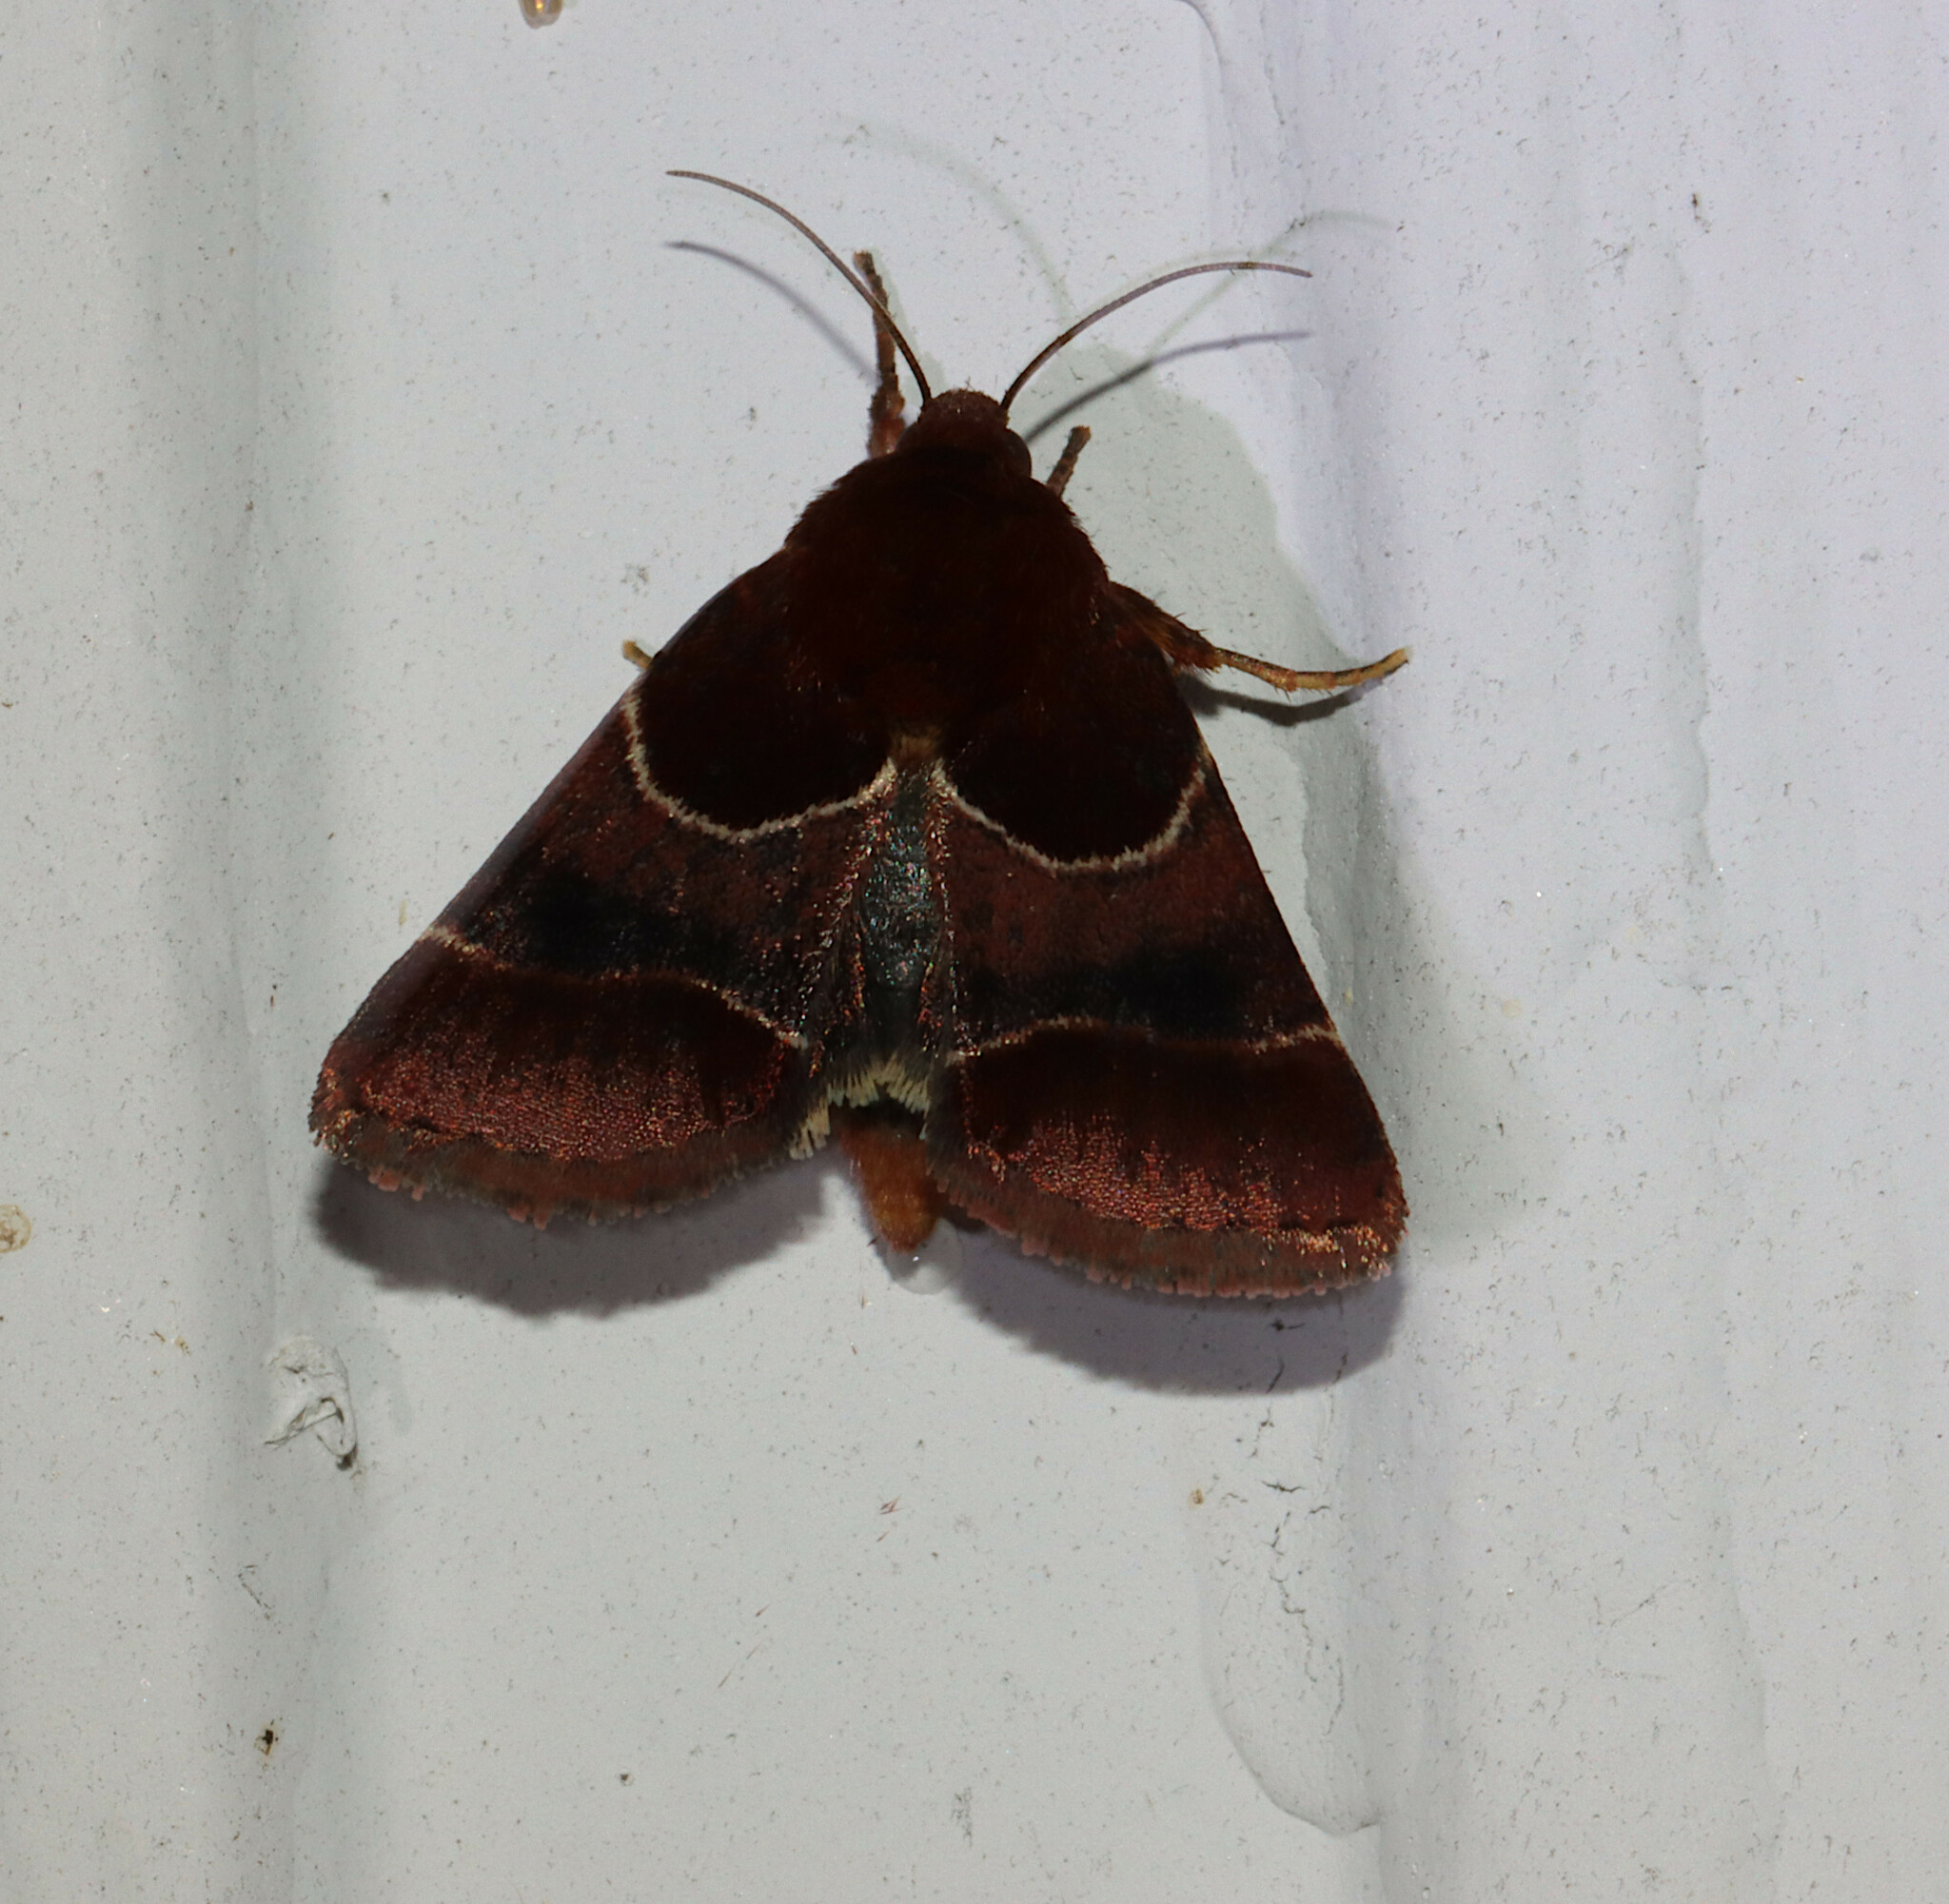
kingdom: Animalia
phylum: Arthropoda
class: Insecta
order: Lepidoptera
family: Noctuidae
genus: Schinia
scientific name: Schinia arcigera
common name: Arcigera flower moth
